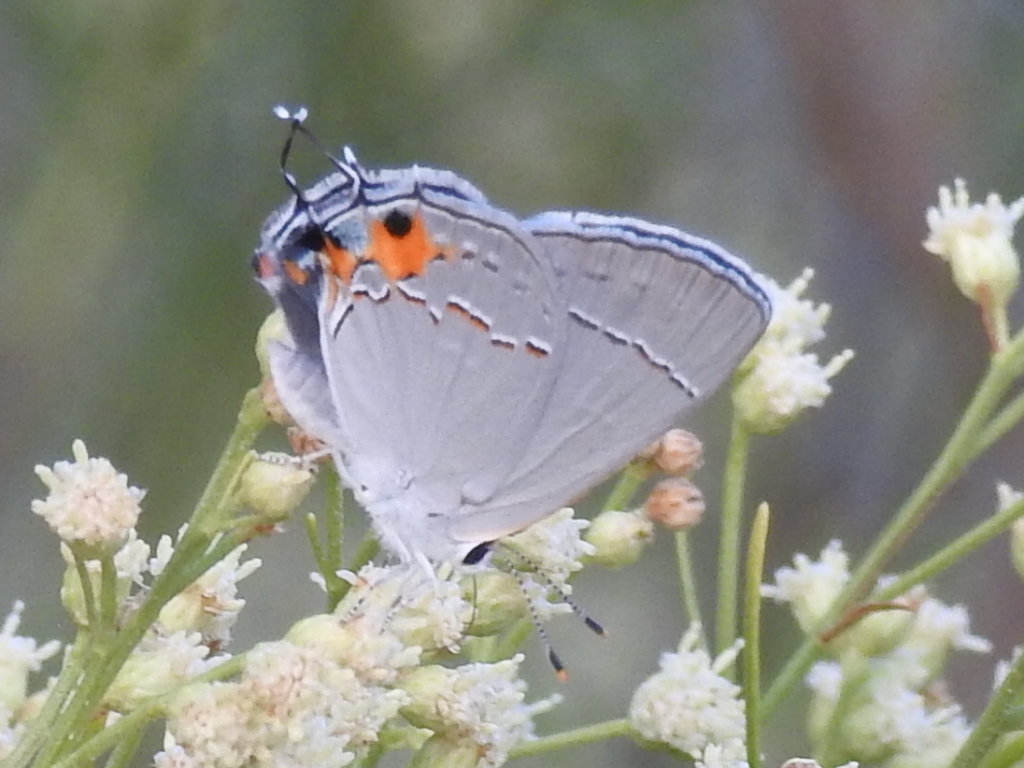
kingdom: Animalia
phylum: Arthropoda
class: Insecta
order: Lepidoptera
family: Lycaenidae
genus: Strymon
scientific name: Strymon melinus
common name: Gray hairstreak
